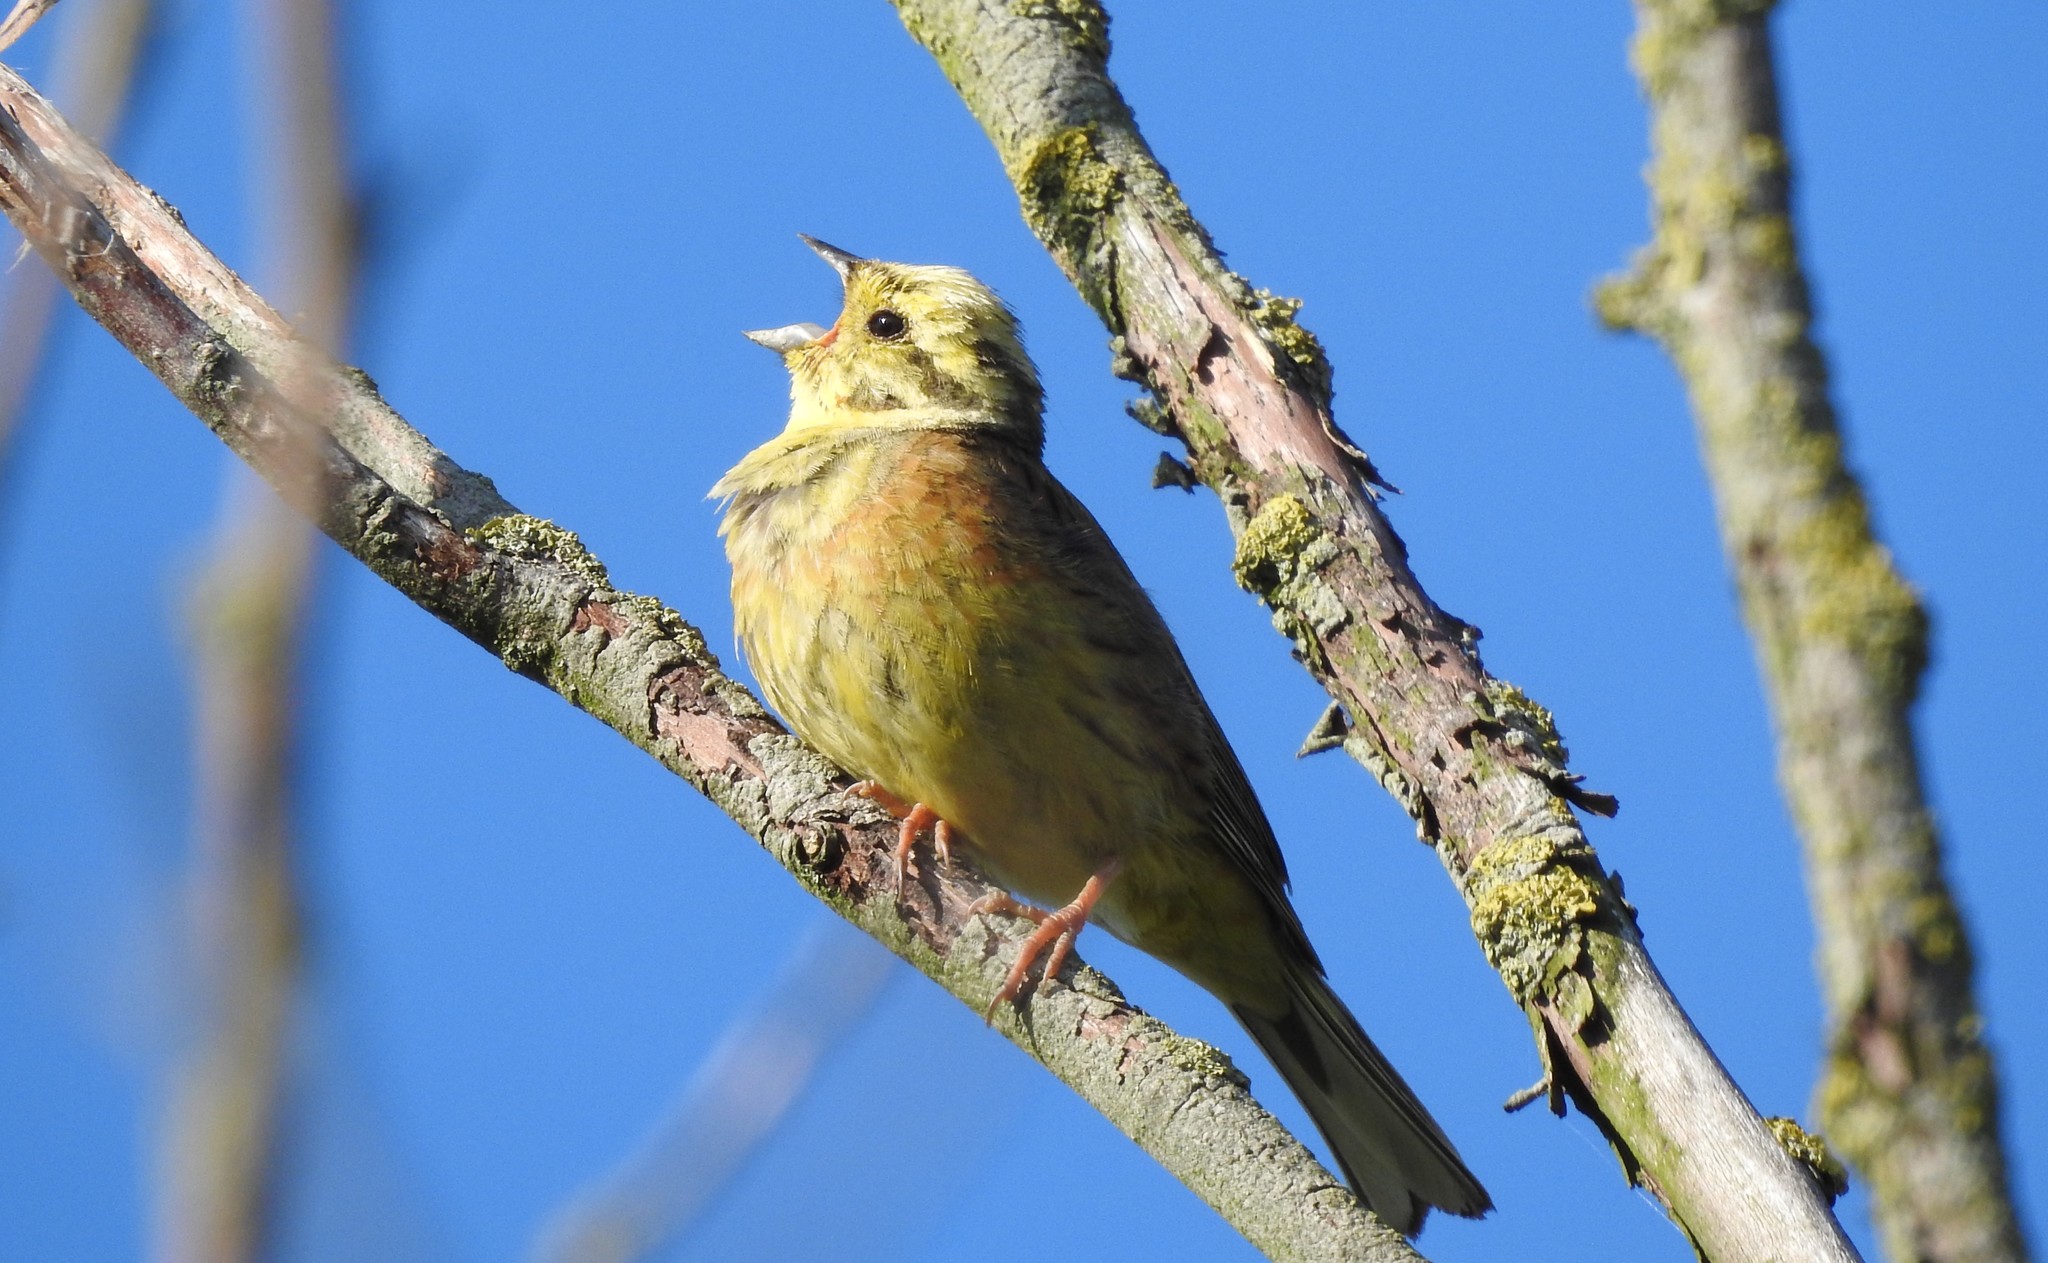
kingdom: Animalia
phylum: Chordata
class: Aves
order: Passeriformes
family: Emberizidae
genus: Emberiza
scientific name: Emberiza citrinella
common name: Yellowhammer
